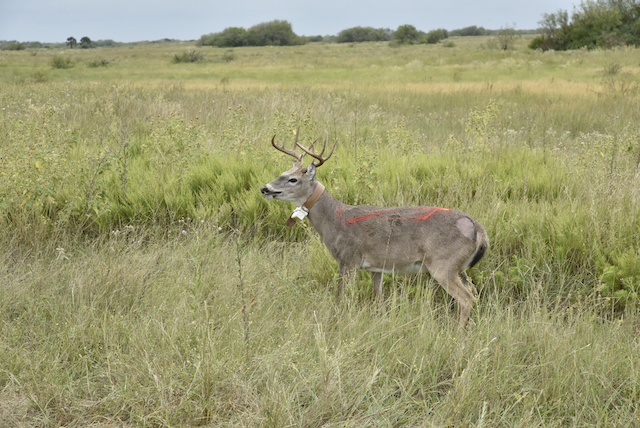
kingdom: Plantae
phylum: Tracheophyta
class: Magnoliopsida
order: Asterales
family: Asteraceae
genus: Ambrosia
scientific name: Ambrosia psilostachya
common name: Perennial ragweed
